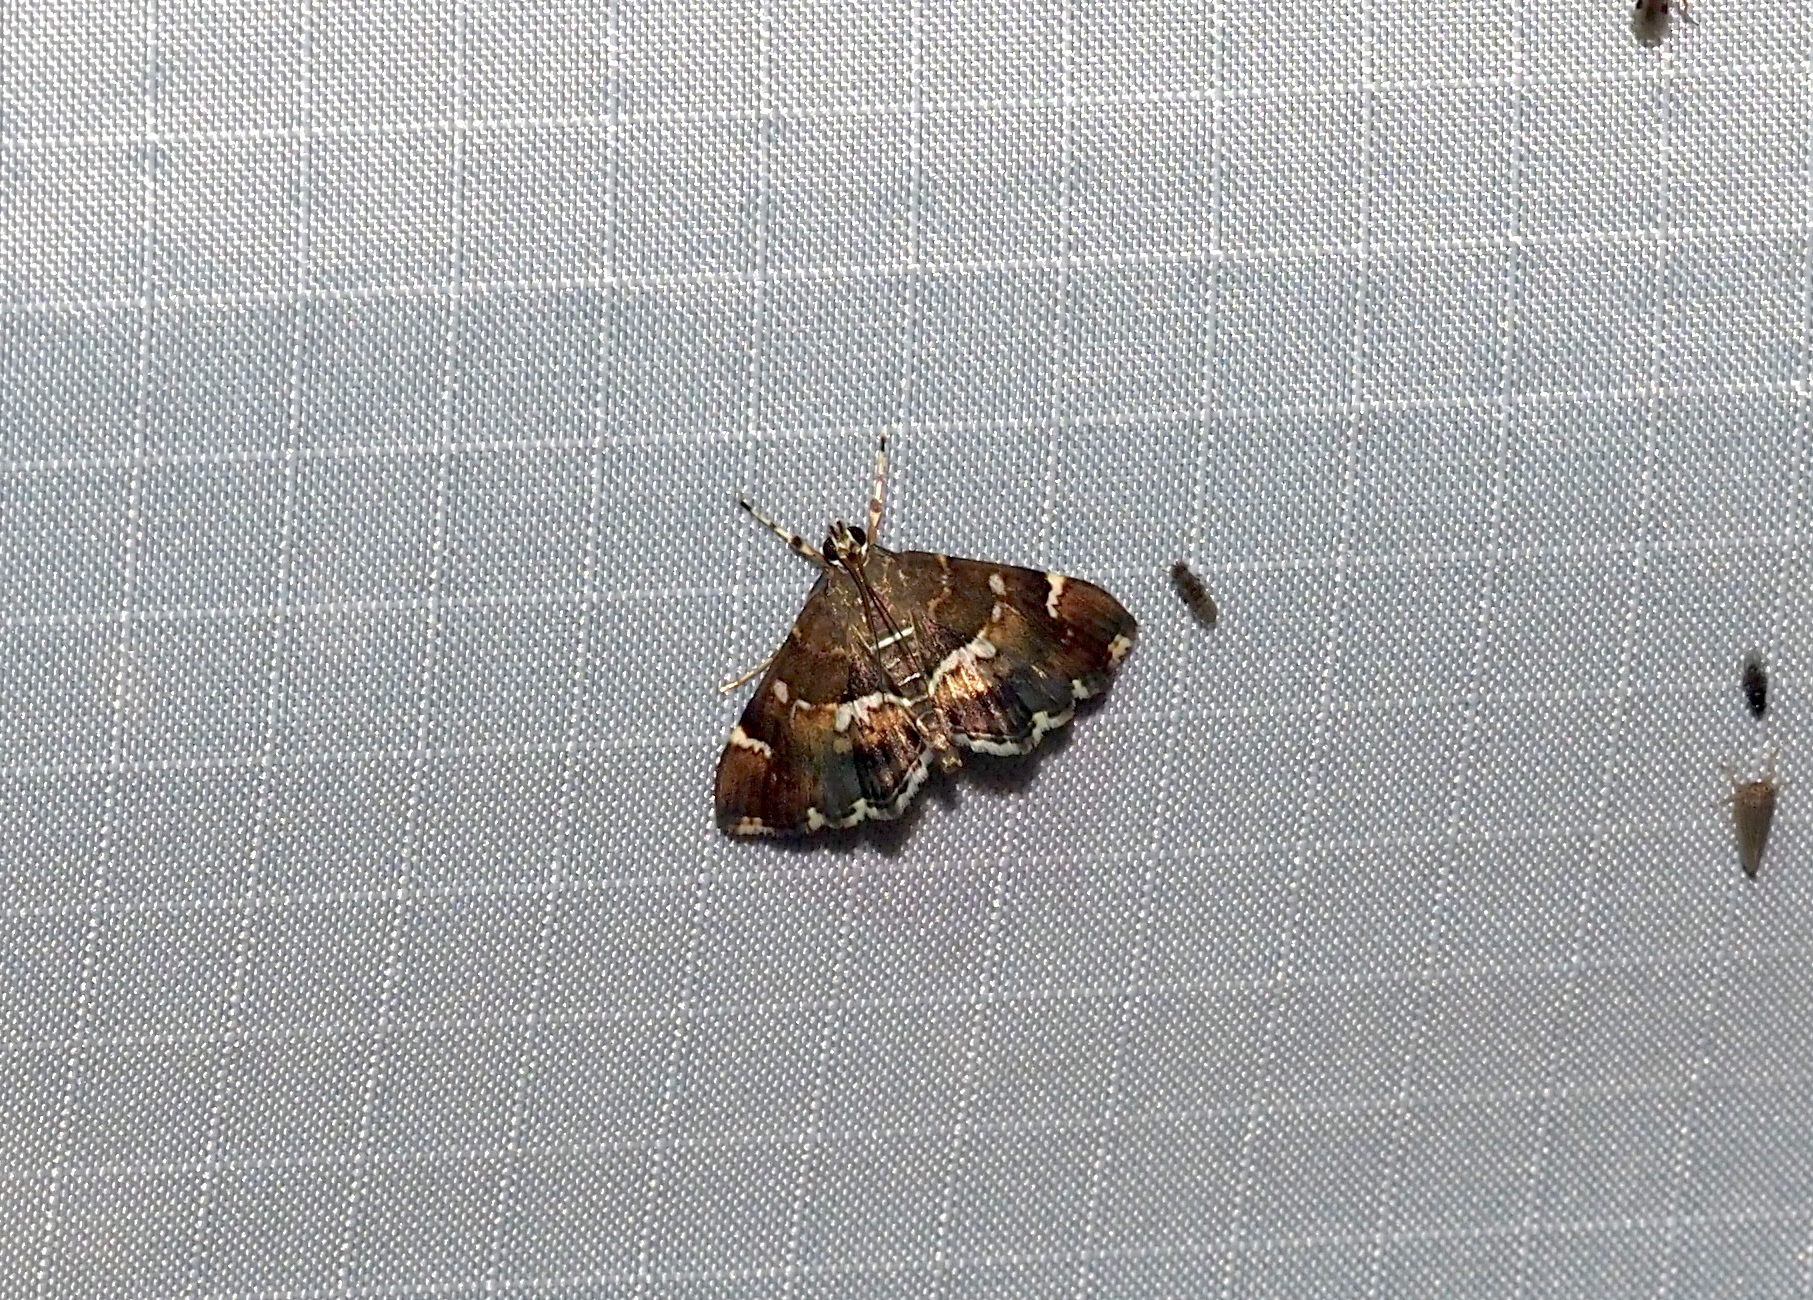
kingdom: Animalia
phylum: Arthropoda
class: Insecta
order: Lepidoptera
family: Crambidae
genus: Hymenia
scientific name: Hymenia perspectalis
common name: Spotted beet webworm
